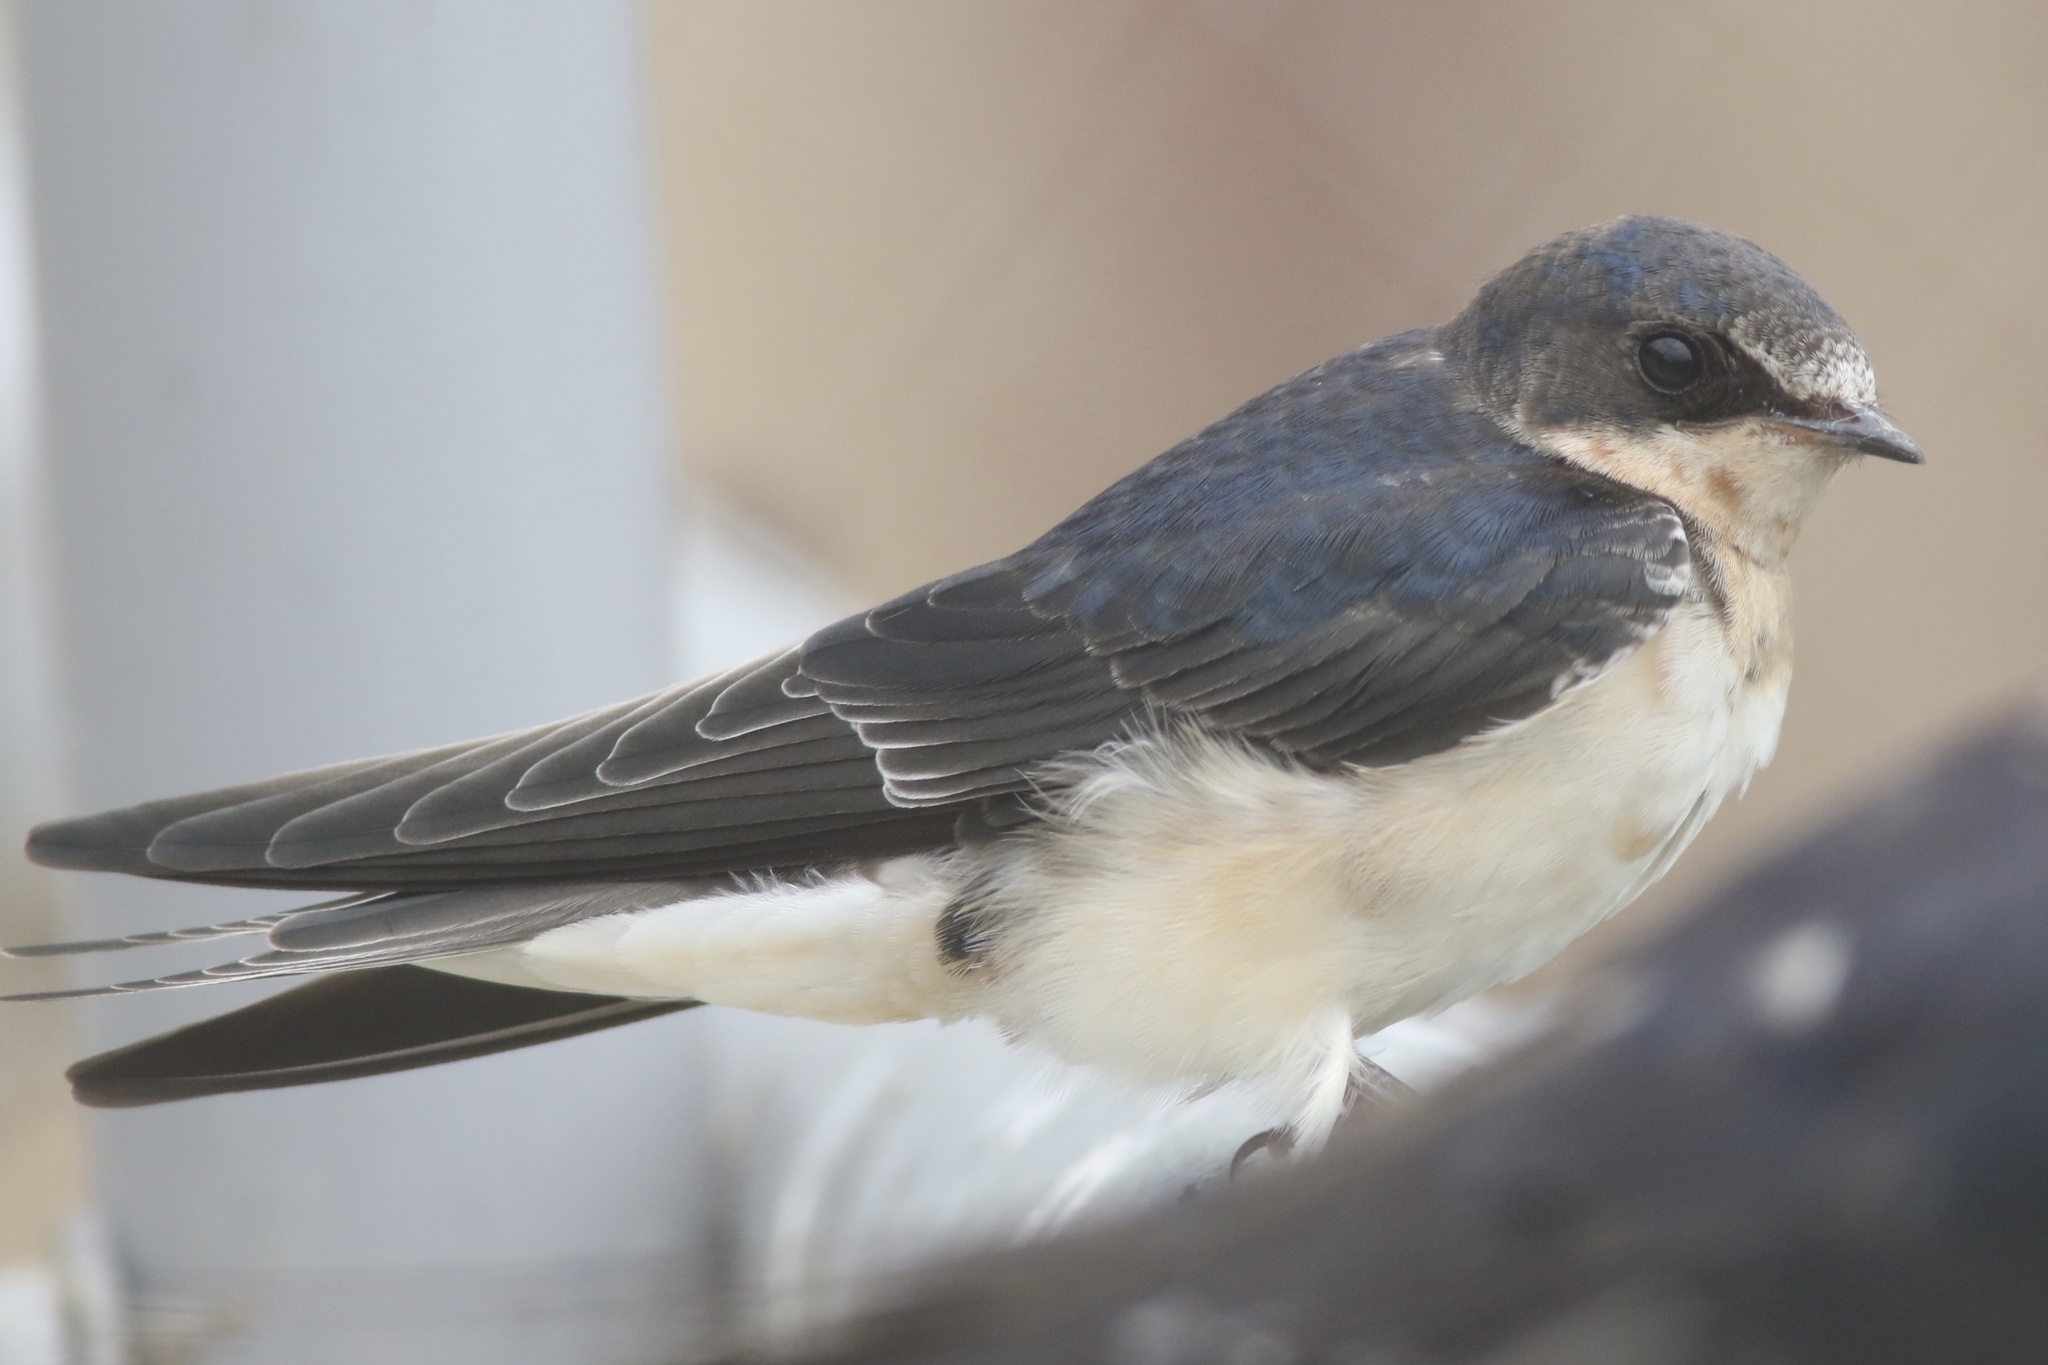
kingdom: Animalia
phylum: Chordata
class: Aves
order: Passeriformes
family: Hirundinidae
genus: Hirundo
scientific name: Hirundo rustica
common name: Barn swallow
